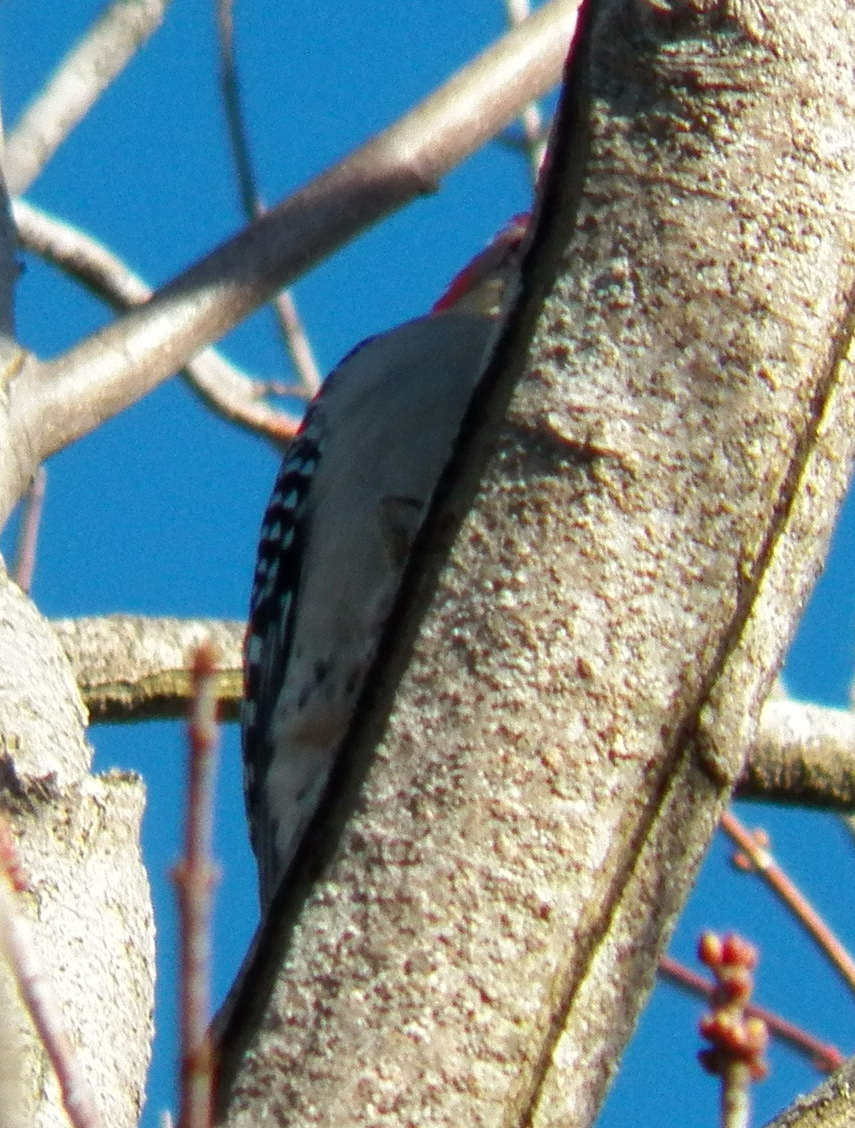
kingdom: Animalia
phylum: Chordata
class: Aves
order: Piciformes
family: Picidae
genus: Melanerpes
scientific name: Melanerpes carolinus
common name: Red-bellied woodpecker
